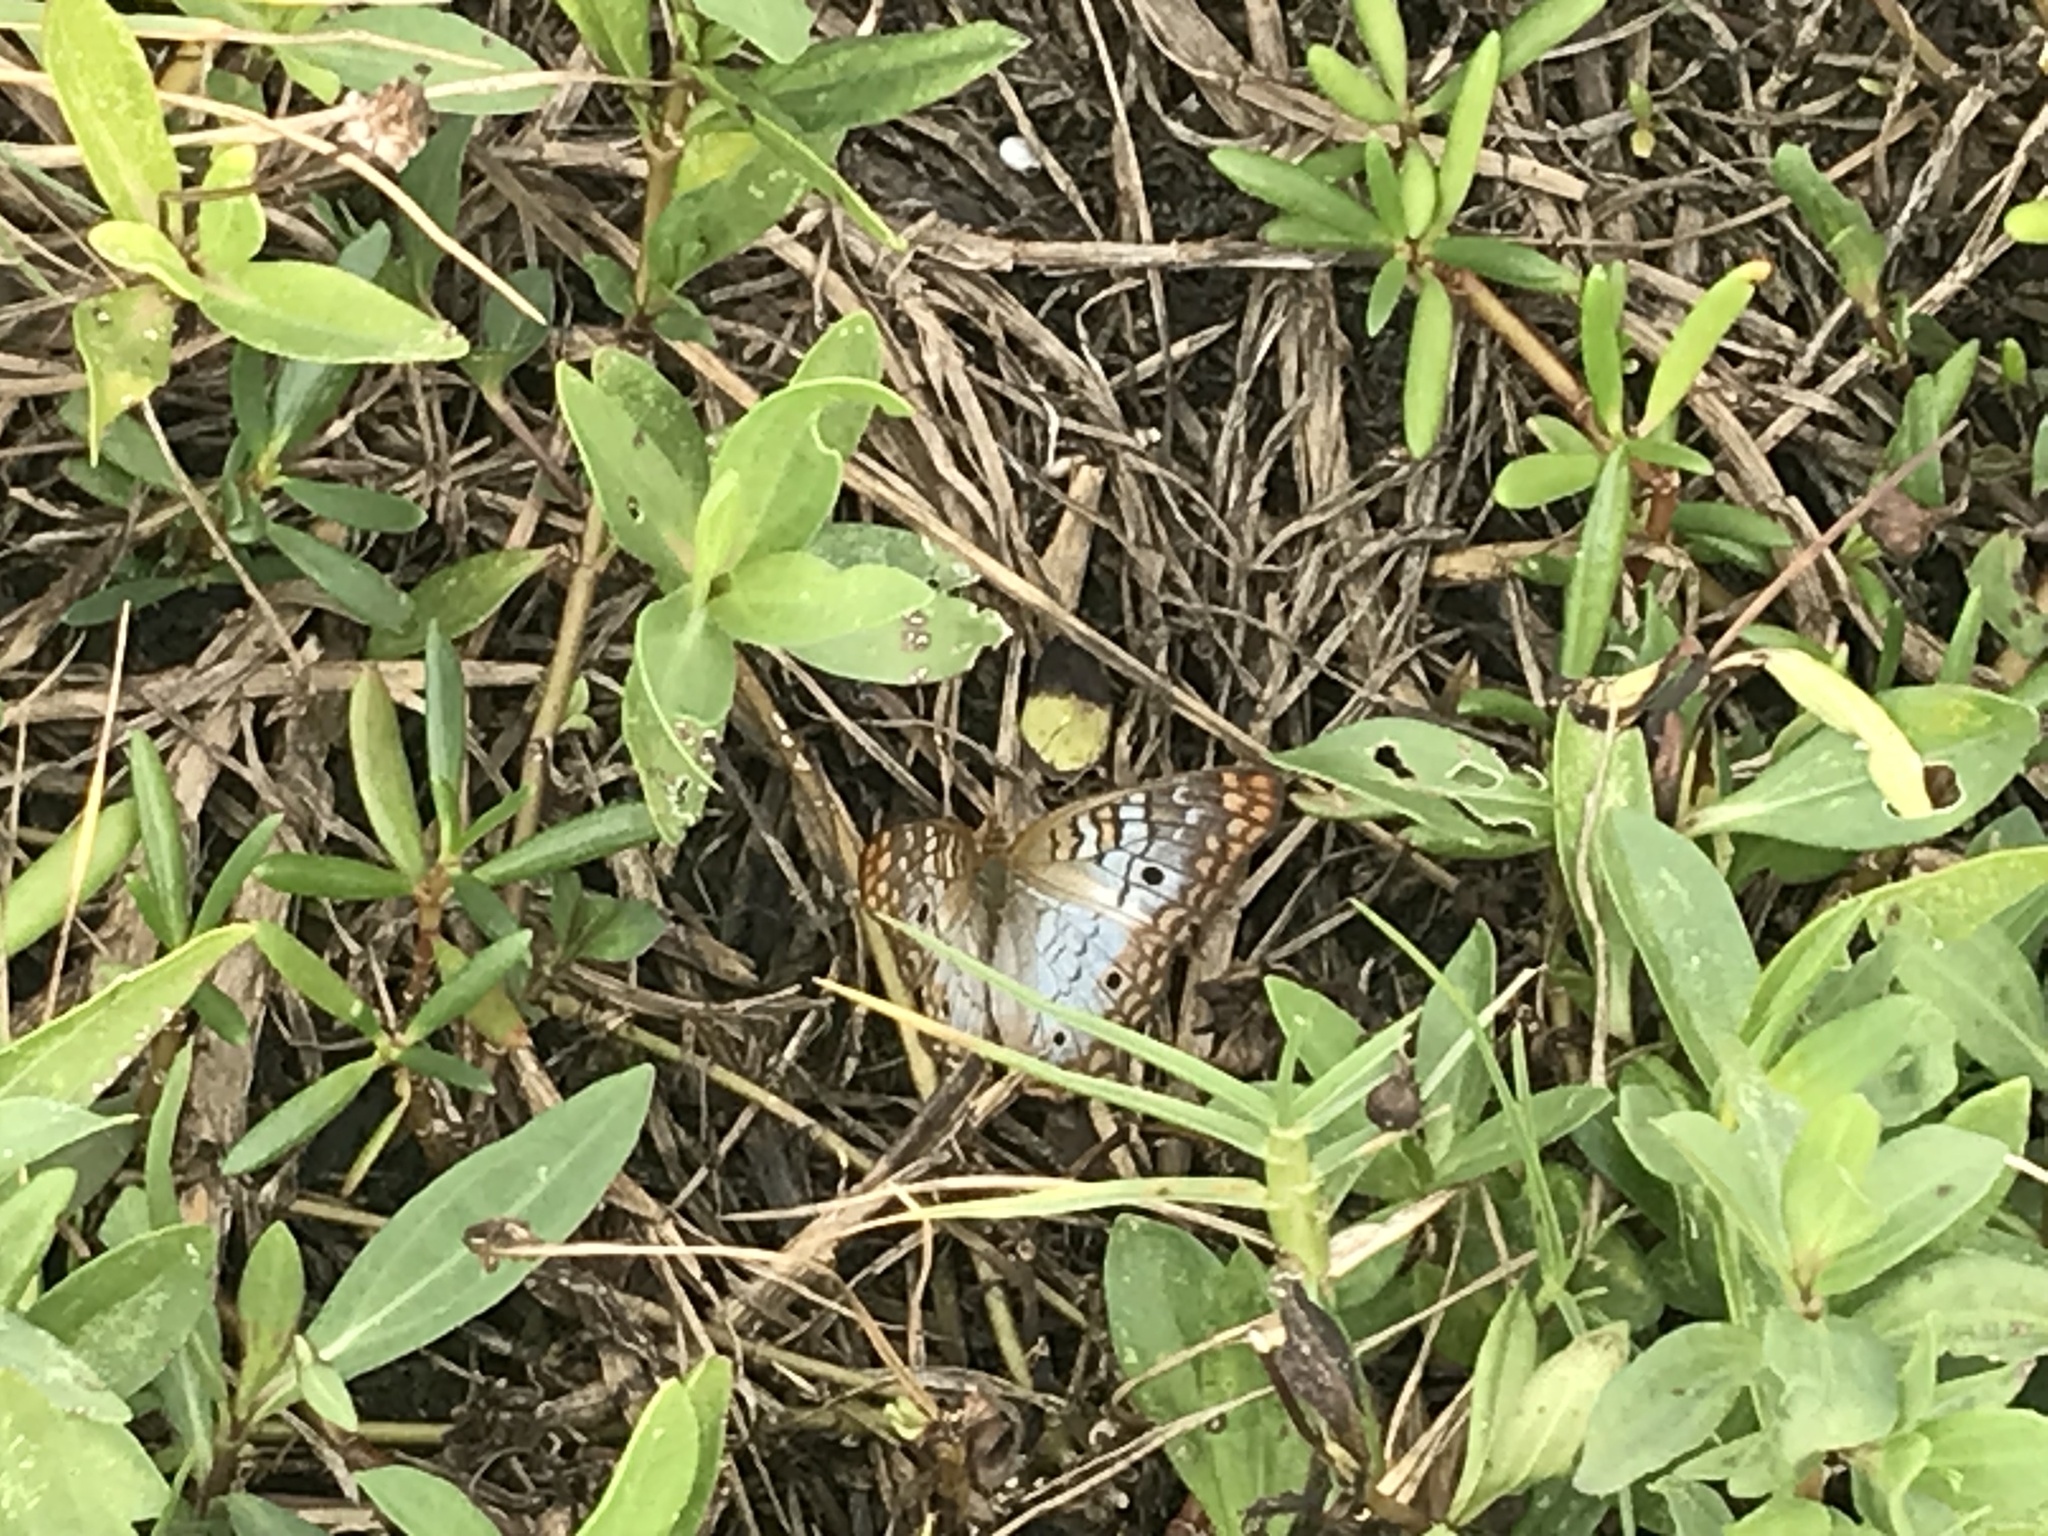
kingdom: Animalia
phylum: Arthropoda
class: Insecta
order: Lepidoptera
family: Nymphalidae
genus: Anartia
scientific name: Anartia jatrophae
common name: White peacock
